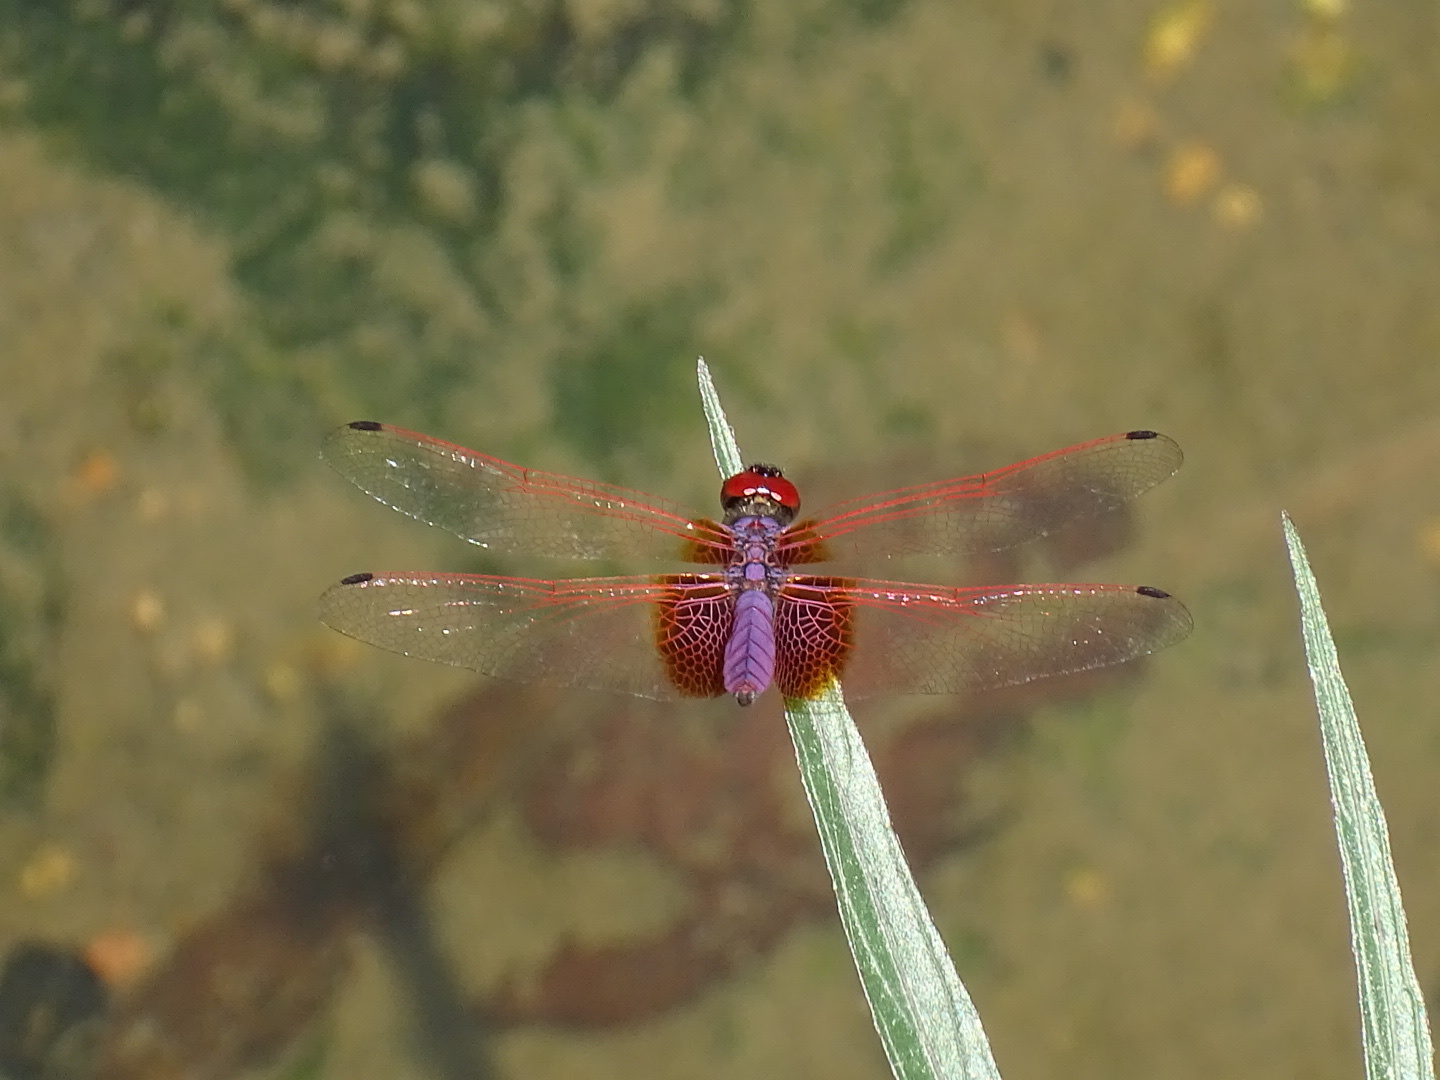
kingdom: Animalia
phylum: Arthropoda
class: Insecta
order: Odonata
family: Libellulidae
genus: Trithemis
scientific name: Trithemis aurora
